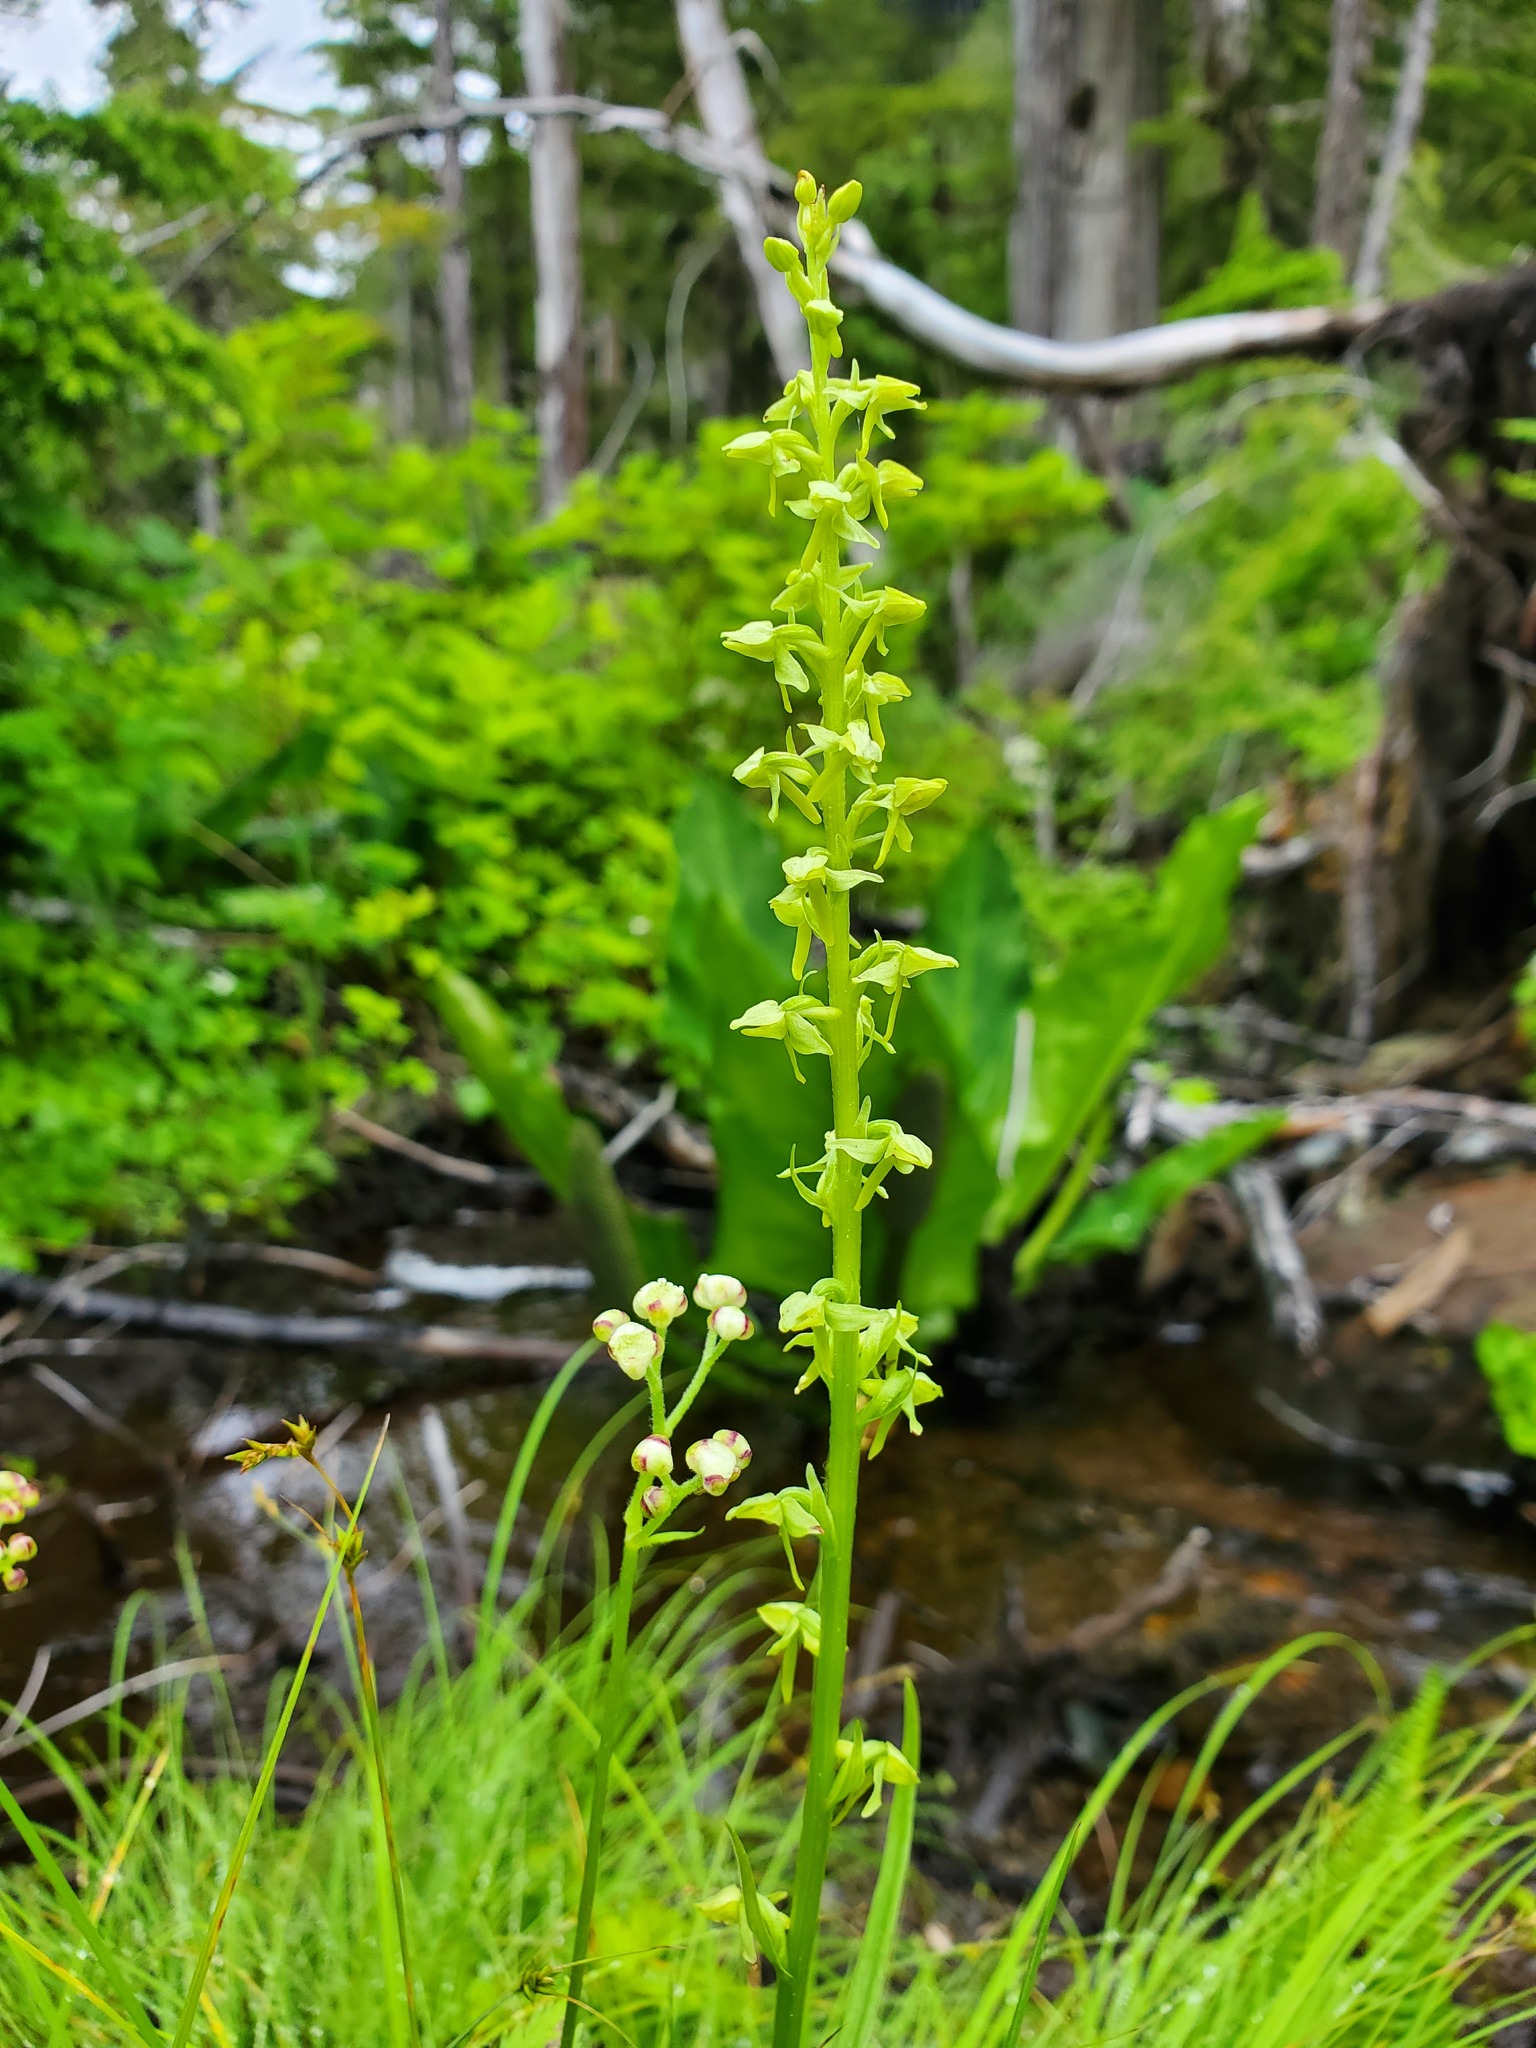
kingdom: Plantae
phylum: Tracheophyta
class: Liliopsida
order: Asparagales
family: Orchidaceae
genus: Platanthera
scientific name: Platanthera stricta
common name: Slender bog orchid
